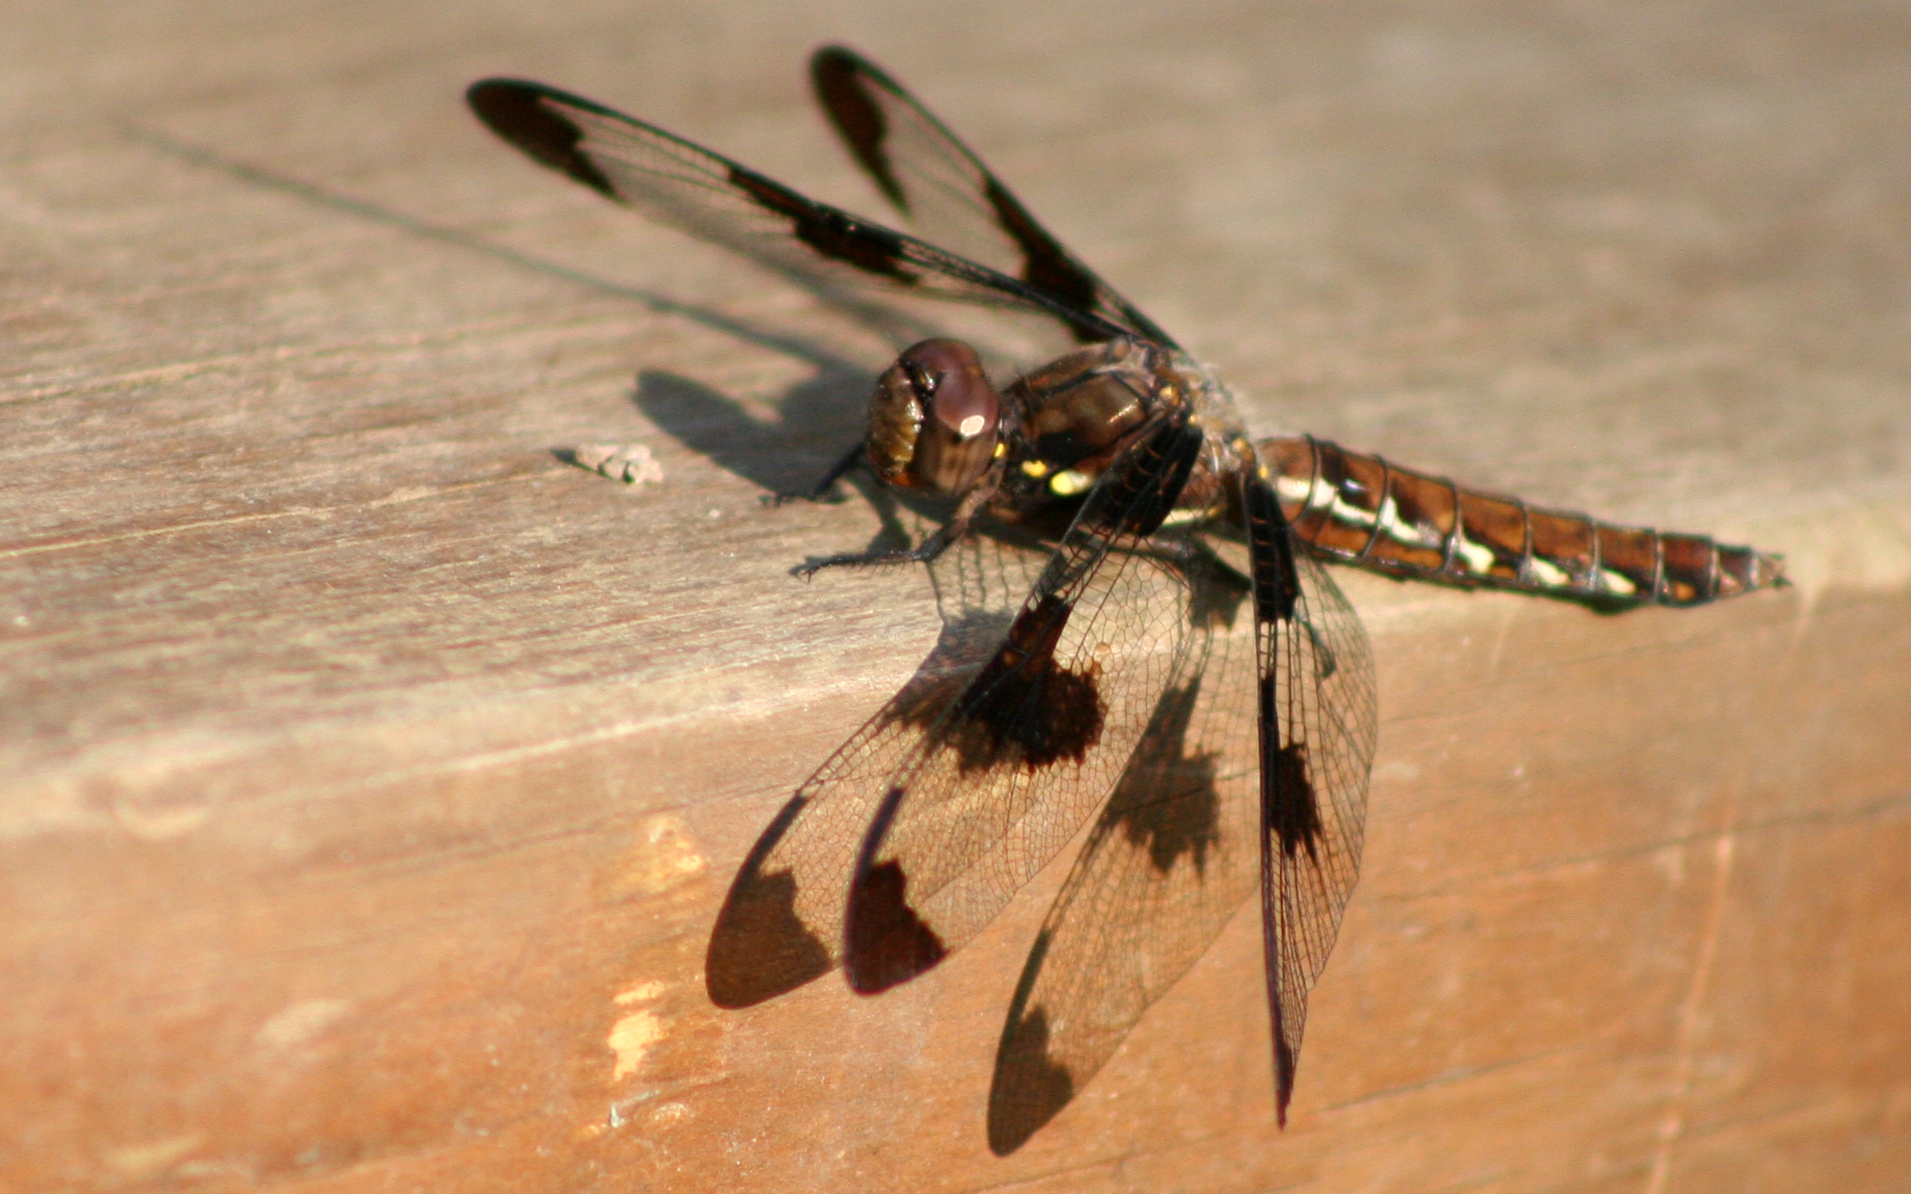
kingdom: Animalia
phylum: Arthropoda
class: Insecta
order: Odonata
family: Libellulidae
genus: Plathemis
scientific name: Plathemis lydia
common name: Common whitetail
